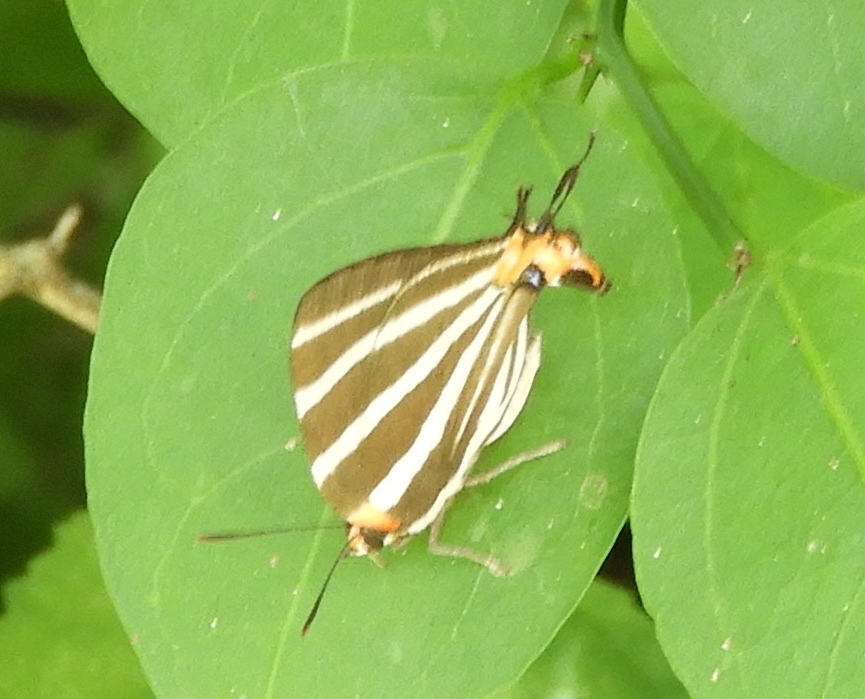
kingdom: Animalia
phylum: Arthropoda
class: Insecta
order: Lepidoptera
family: Lycaenidae
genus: Thecla
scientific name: Thecla bathildis
